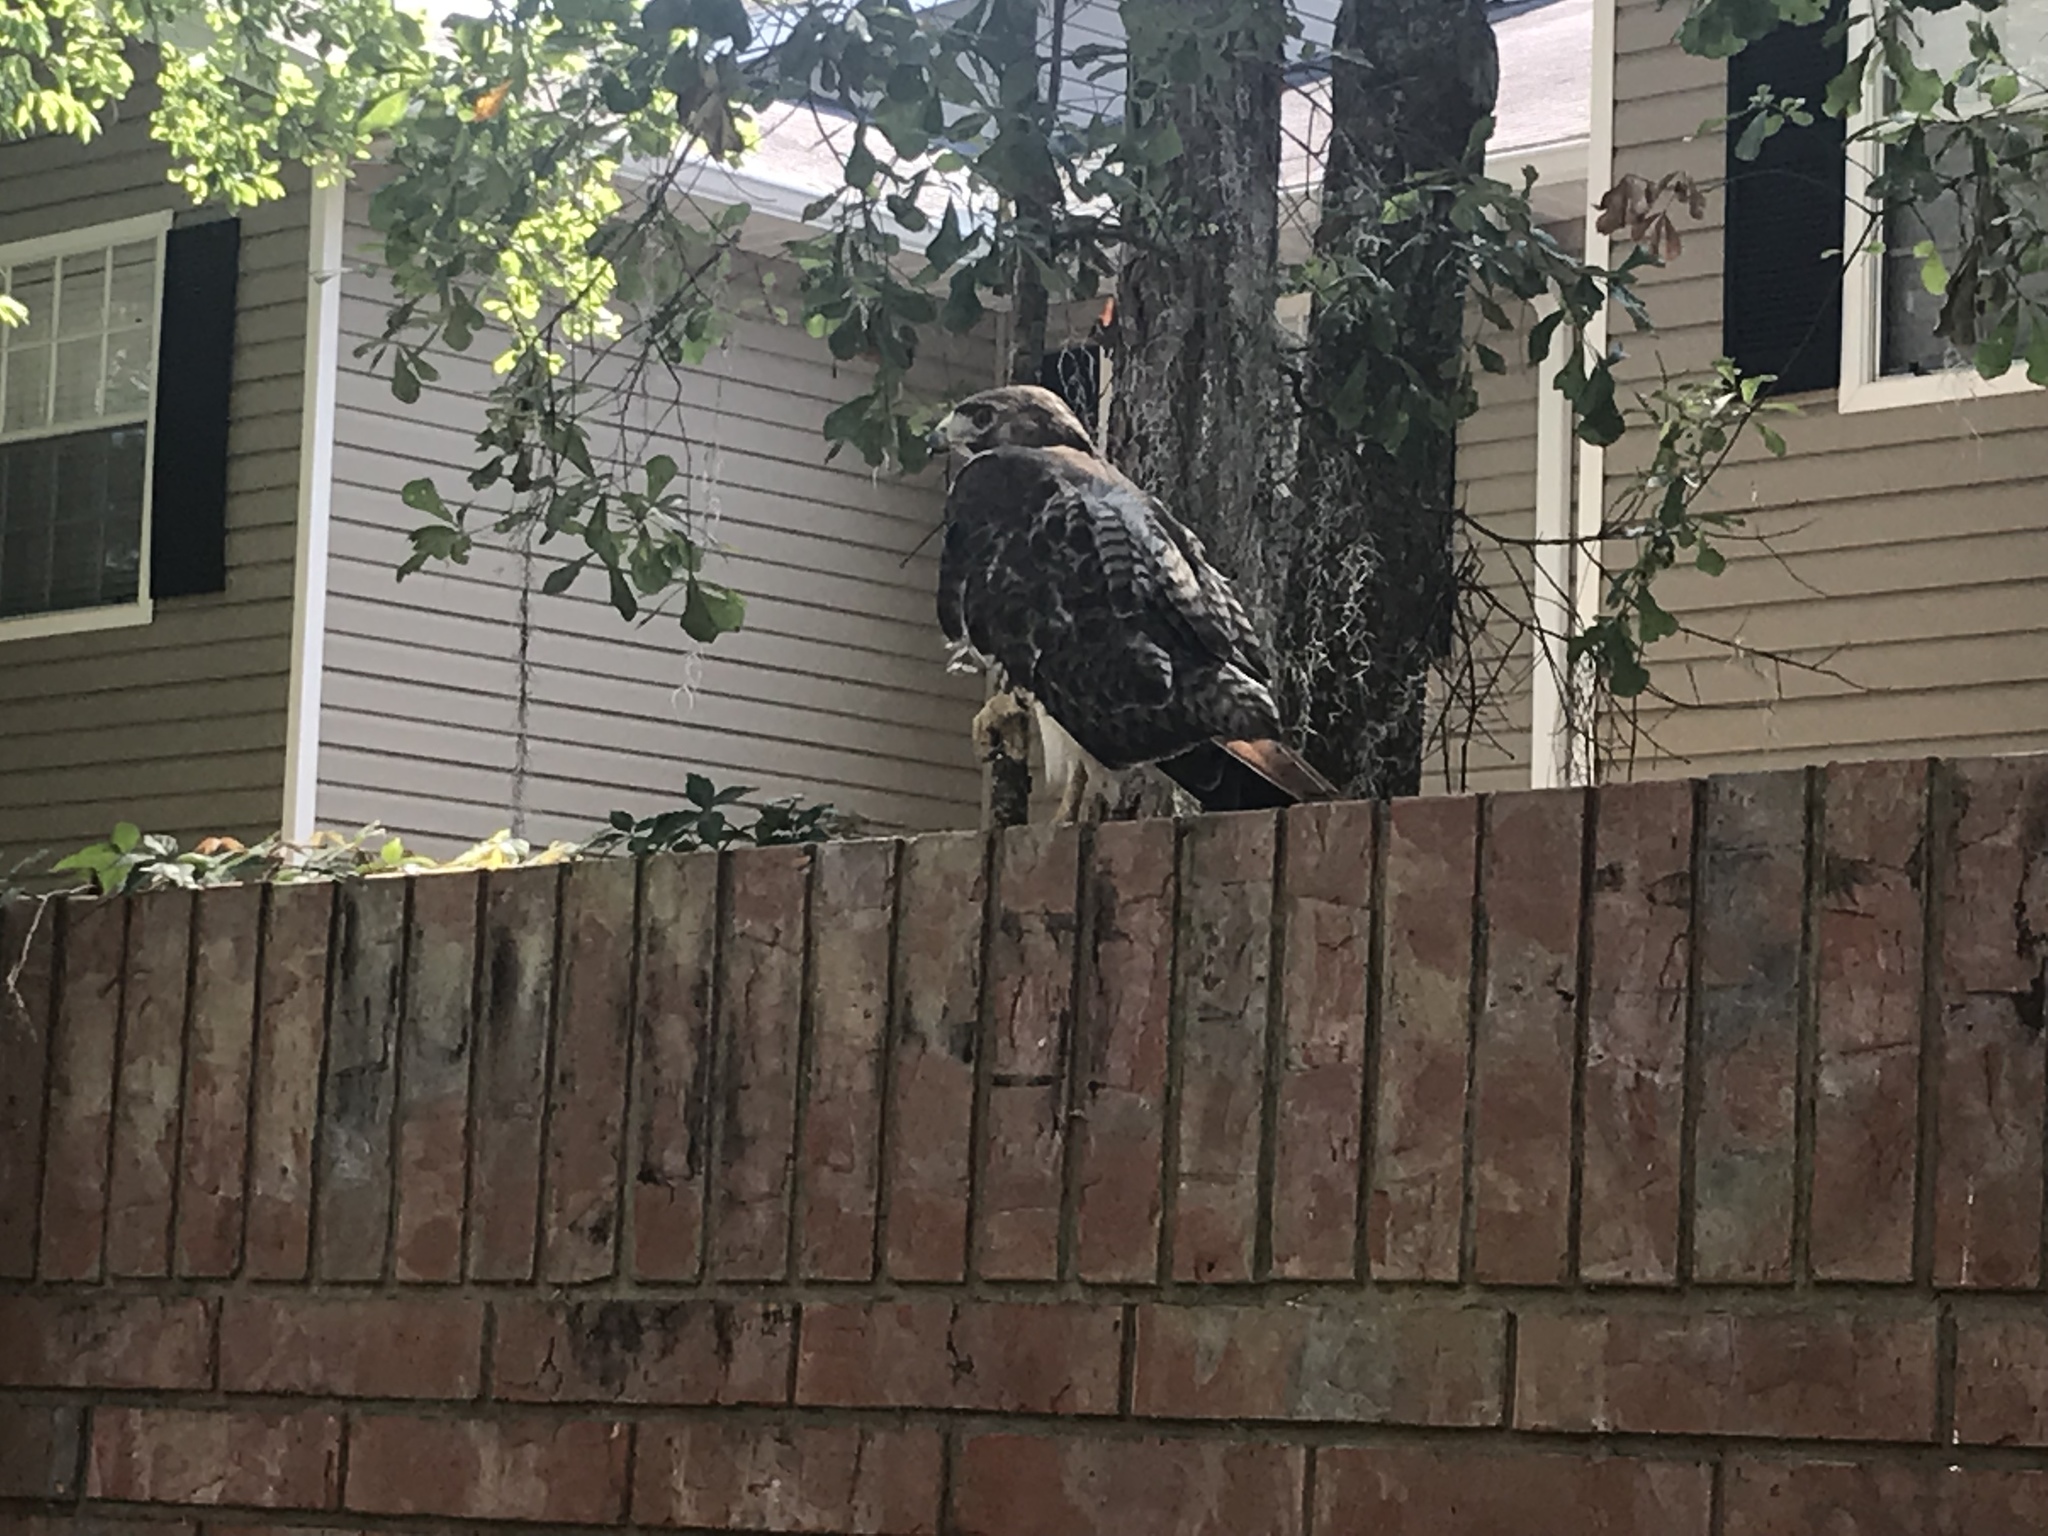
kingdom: Animalia
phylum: Chordata
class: Aves
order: Accipitriformes
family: Accipitridae
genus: Buteo
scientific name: Buteo jamaicensis
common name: Red-tailed hawk
